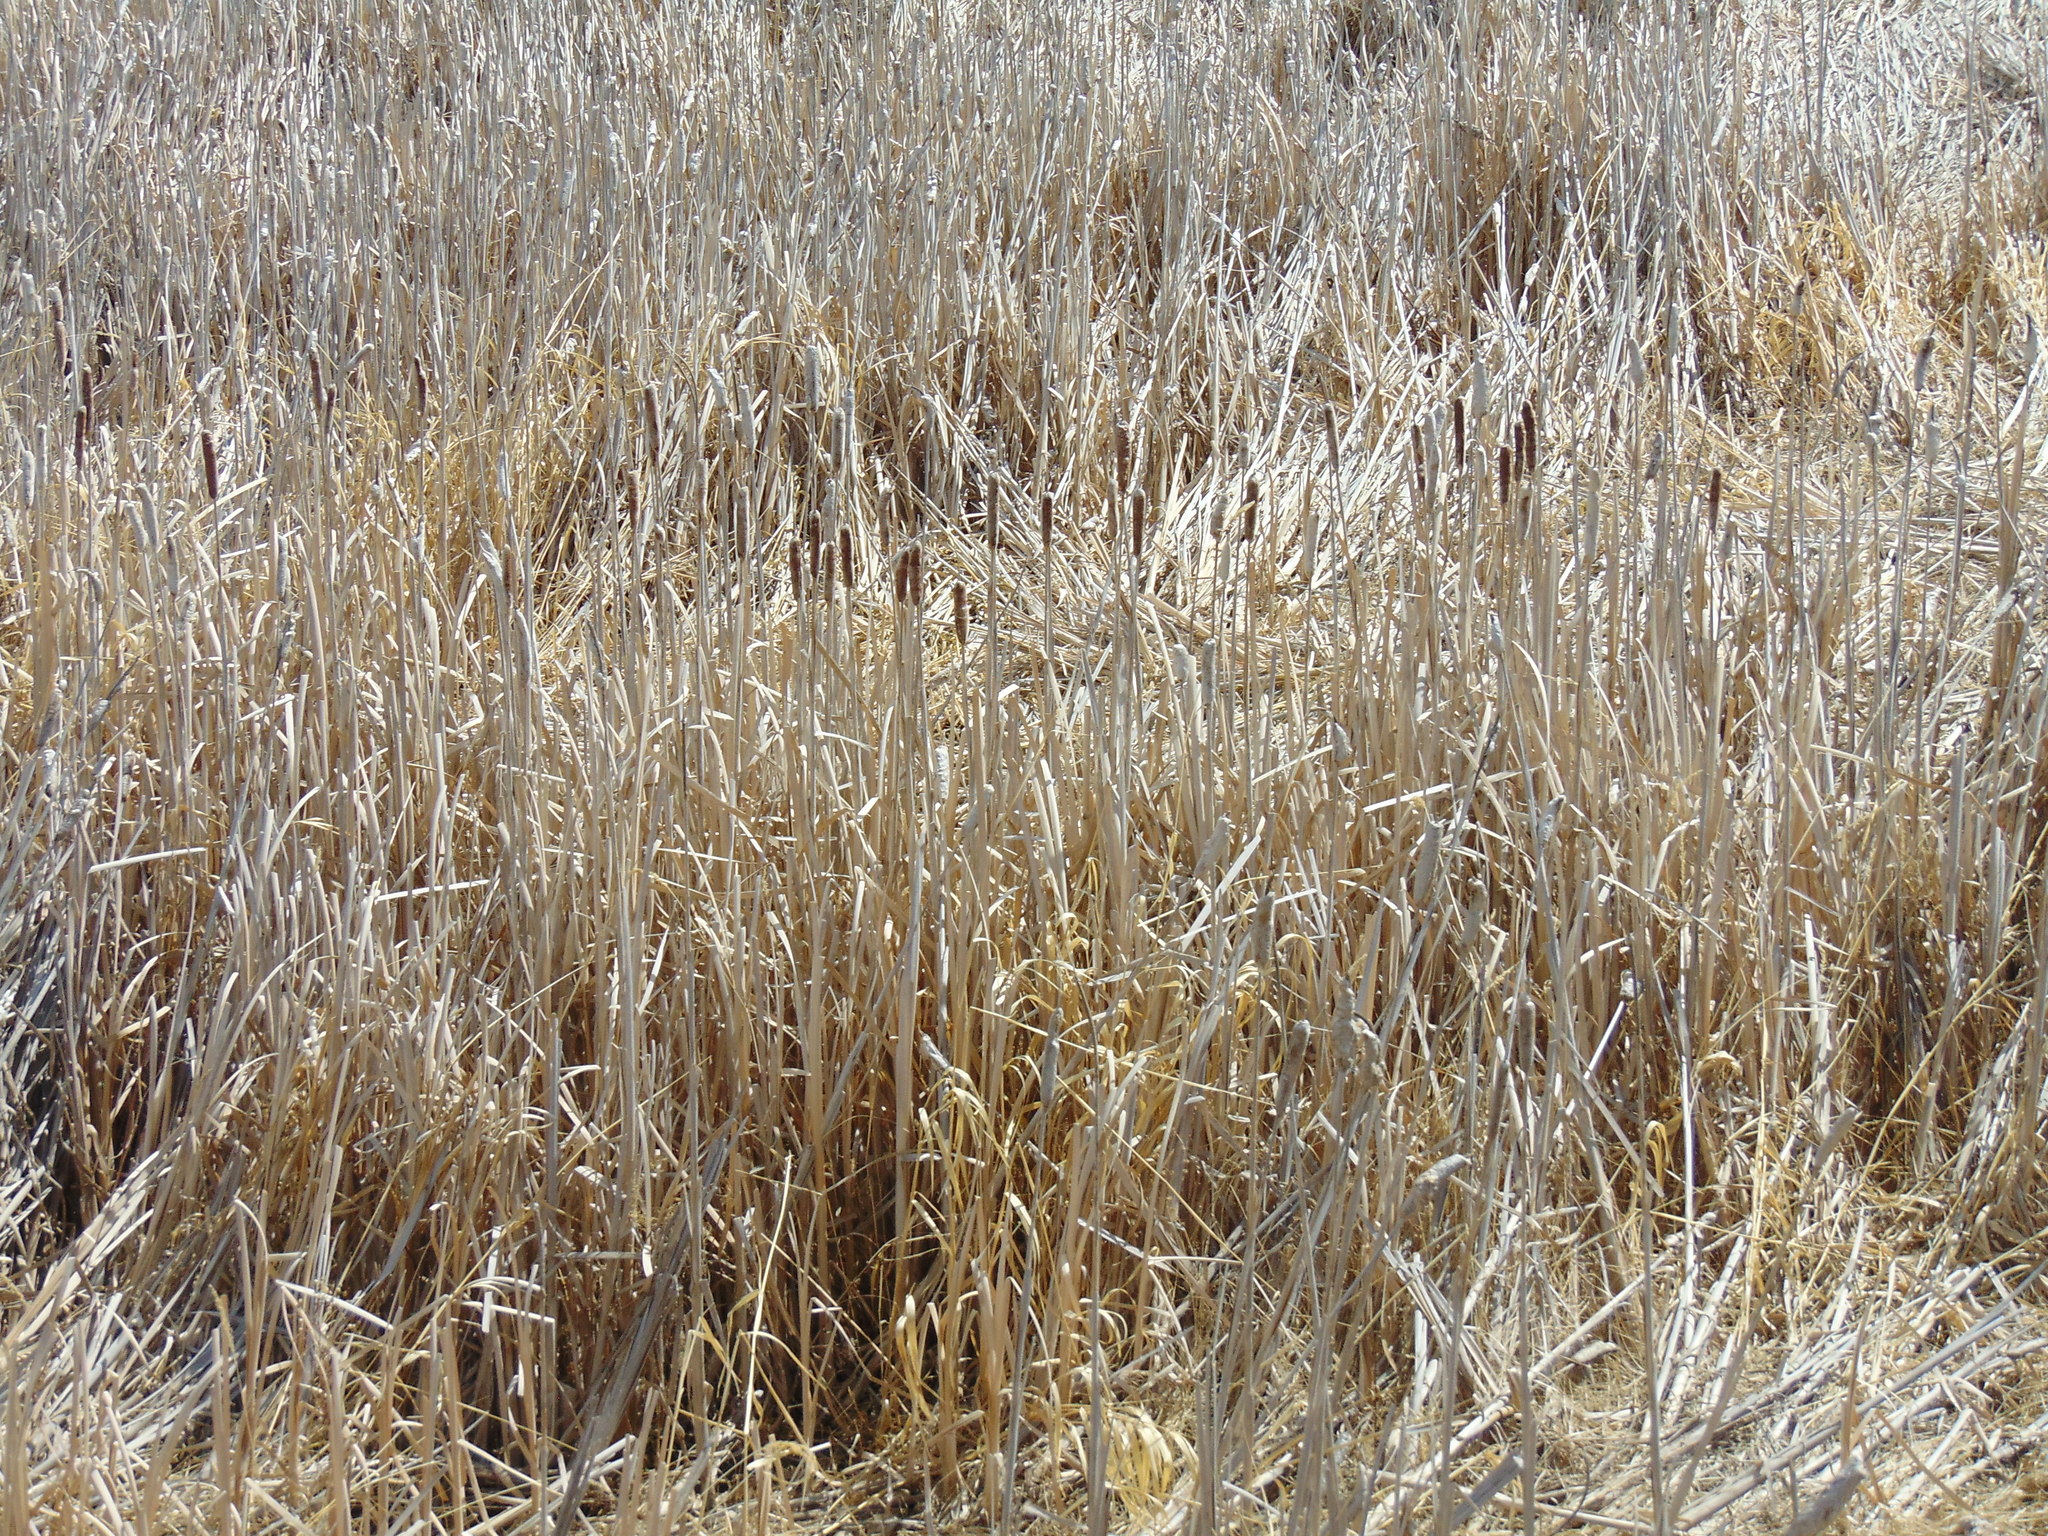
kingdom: Plantae
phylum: Tracheophyta
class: Liliopsida
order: Poales
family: Typhaceae
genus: Typha
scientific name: Typha latifolia
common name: Broadleaf cattail
